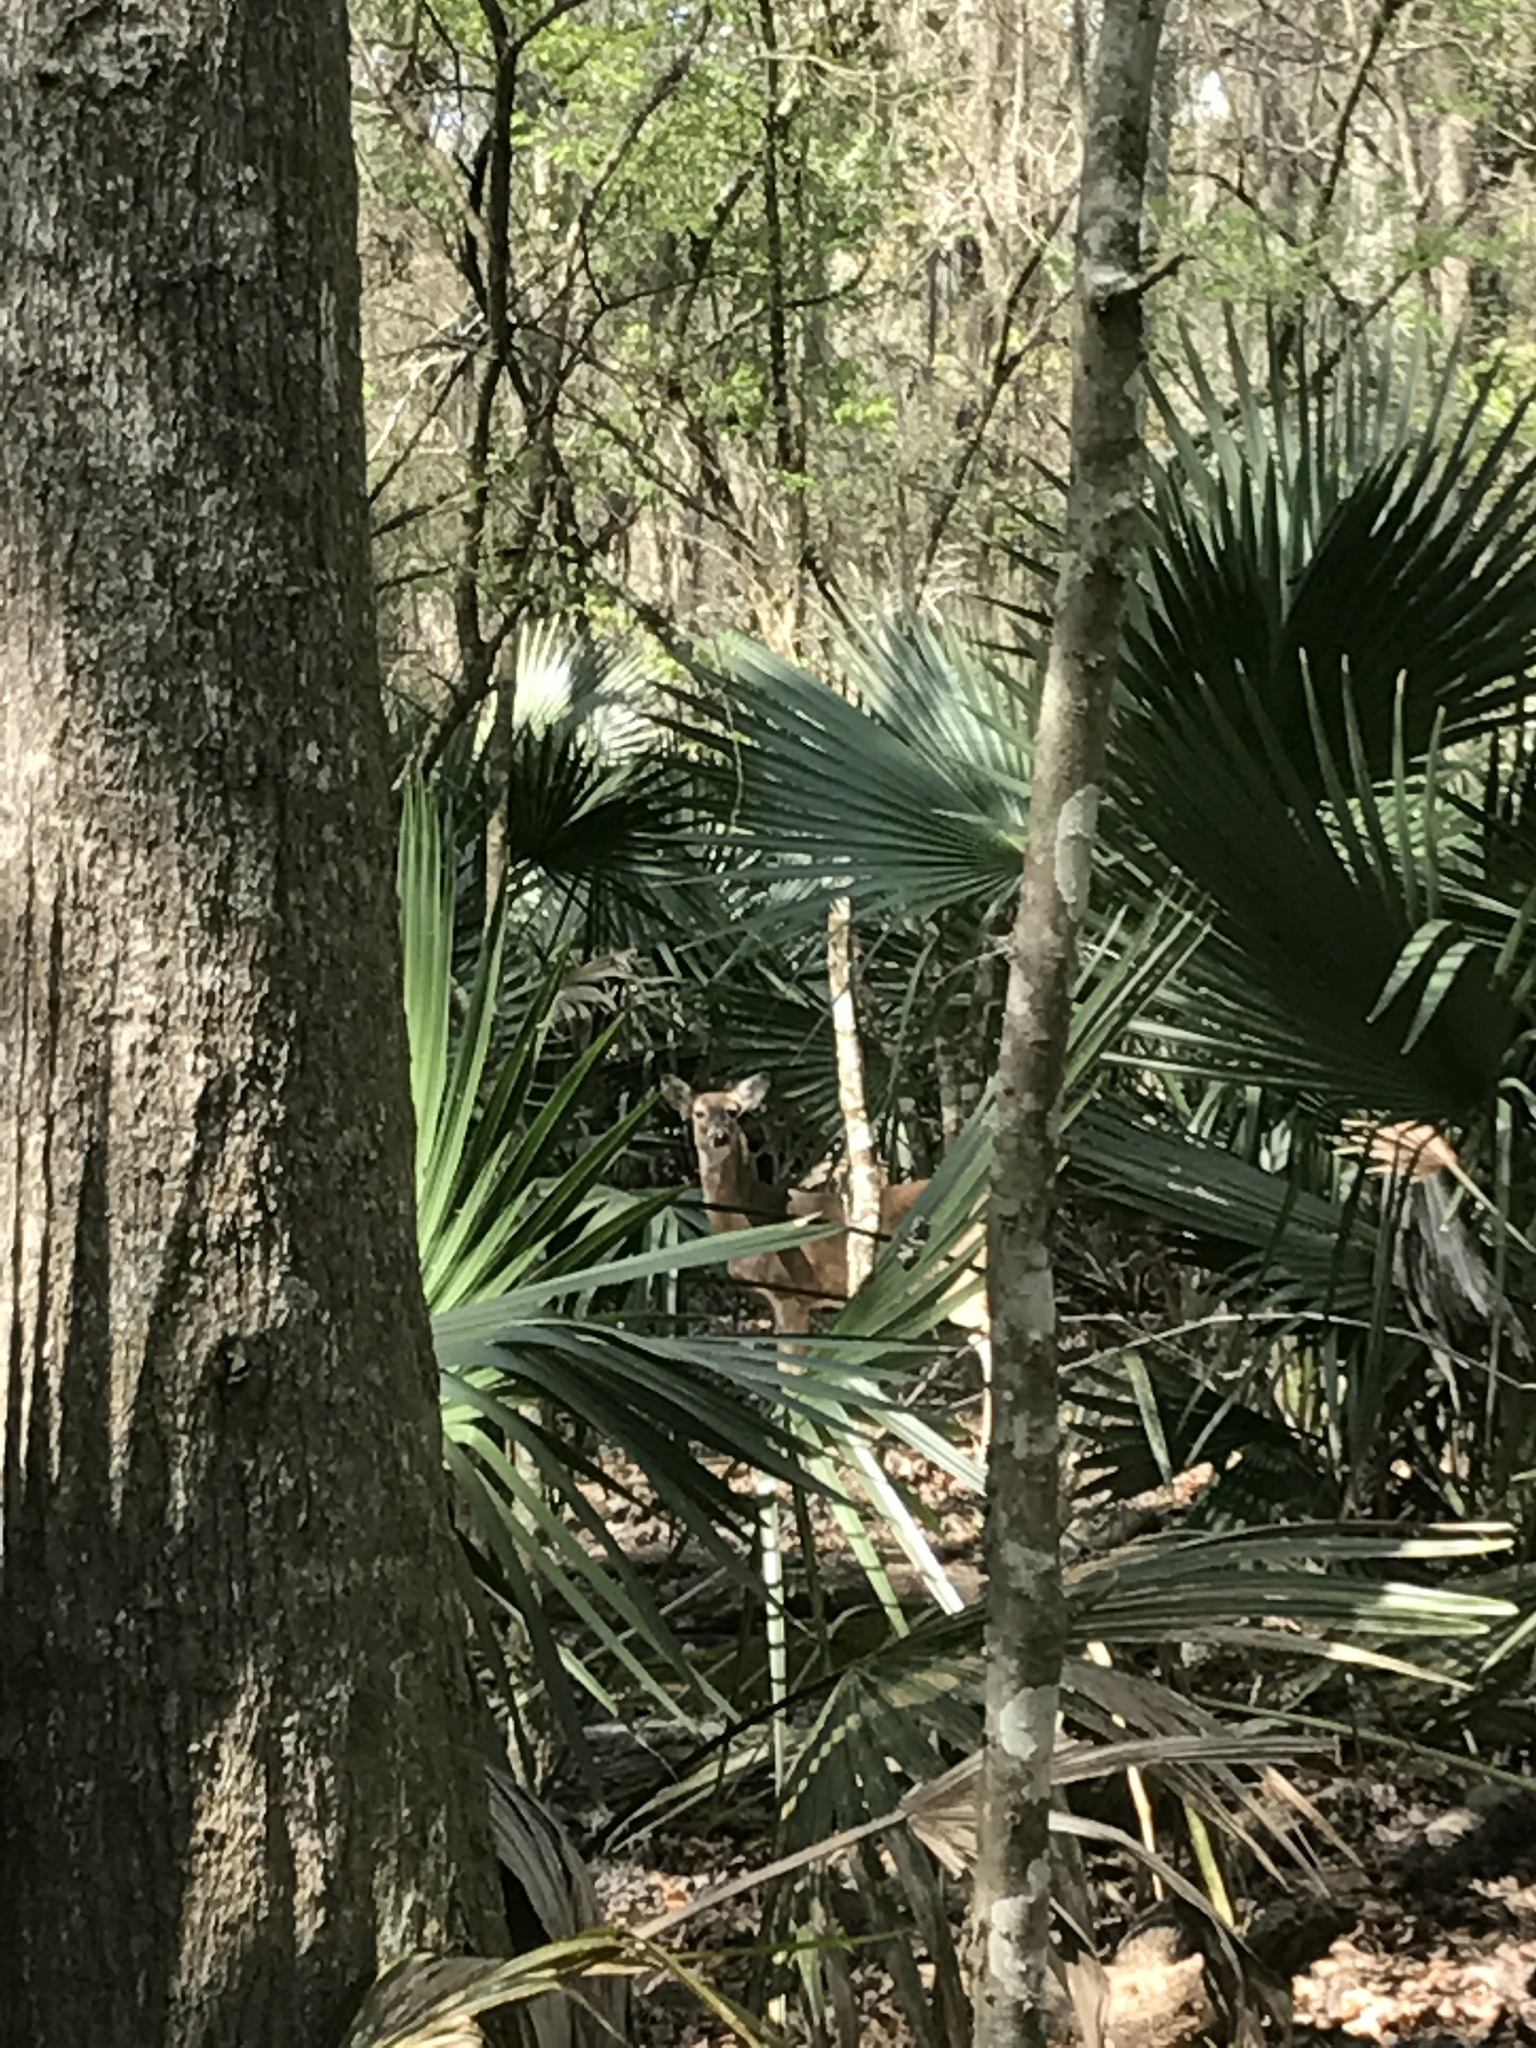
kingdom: Animalia
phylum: Chordata
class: Mammalia
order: Artiodactyla
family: Cervidae
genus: Odocoileus
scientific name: Odocoileus virginianus
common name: White-tailed deer
